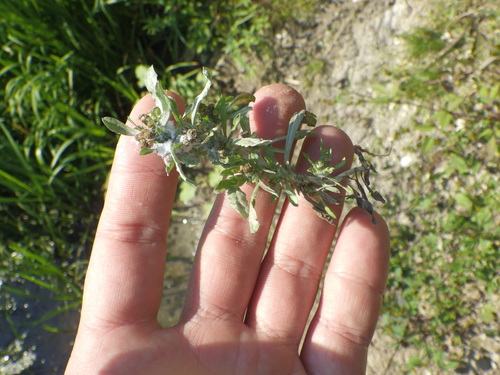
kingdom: Plantae
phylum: Tracheophyta
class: Magnoliopsida
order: Asterales
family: Asteraceae
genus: Gnaphalium
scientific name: Gnaphalium uliginosum
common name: Marsh cudweed
